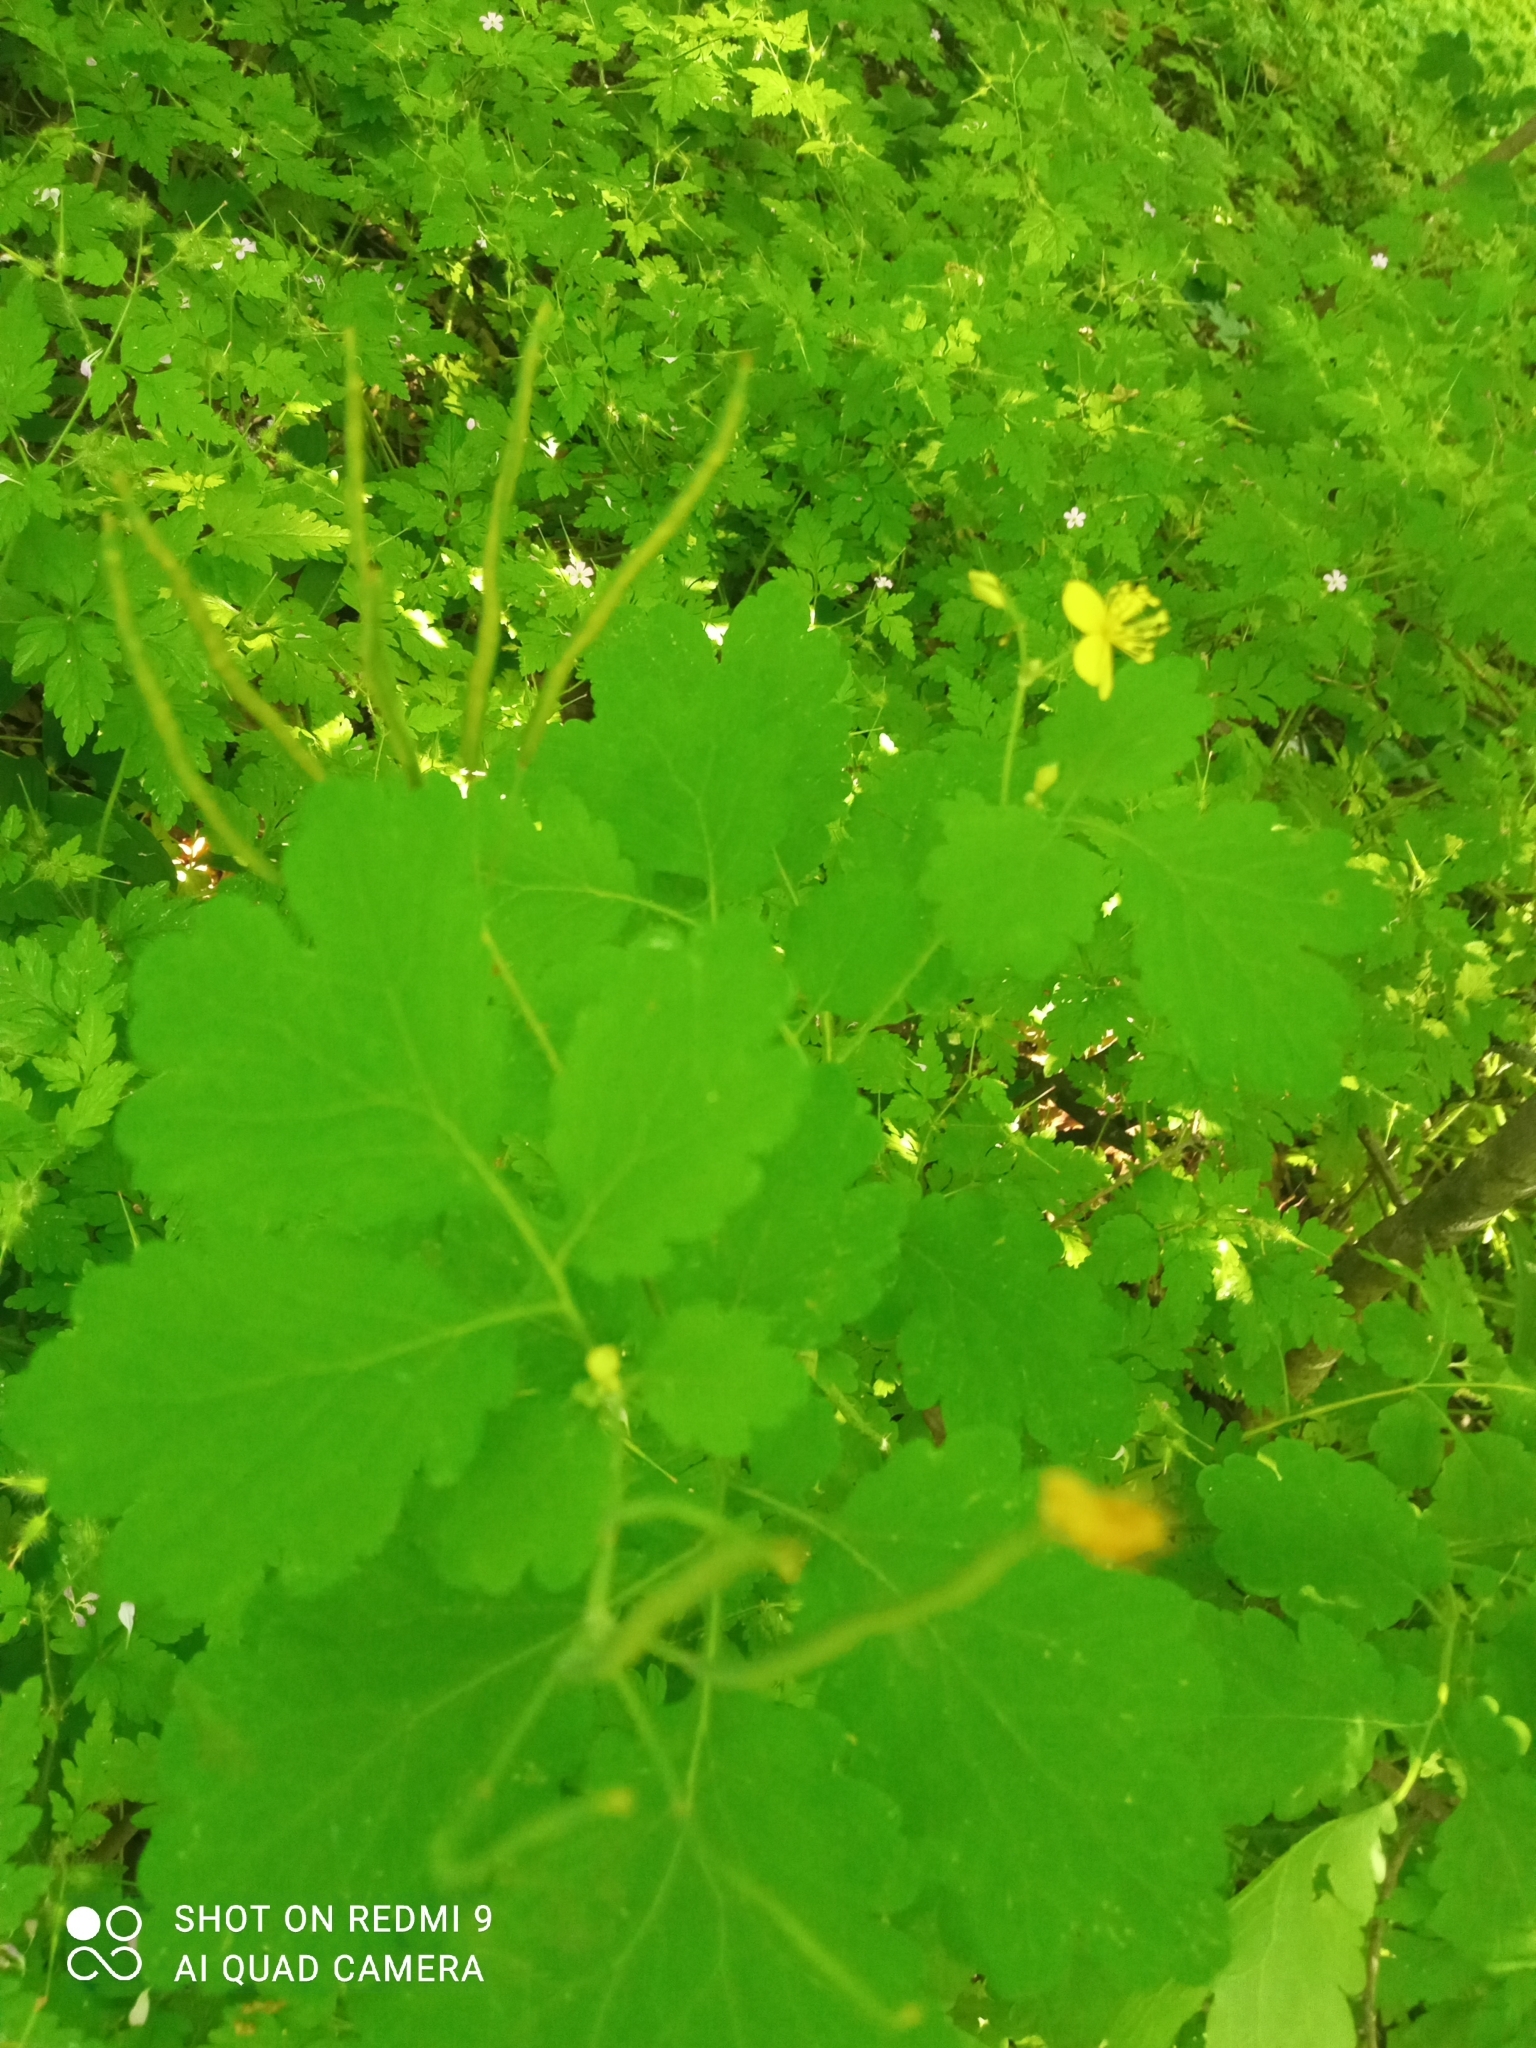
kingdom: Plantae
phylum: Tracheophyta
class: Magnoliopsida
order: Ranunculales
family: Papaveraceae
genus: Chelidonium
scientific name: Chelidonium majus
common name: Greater celandine
